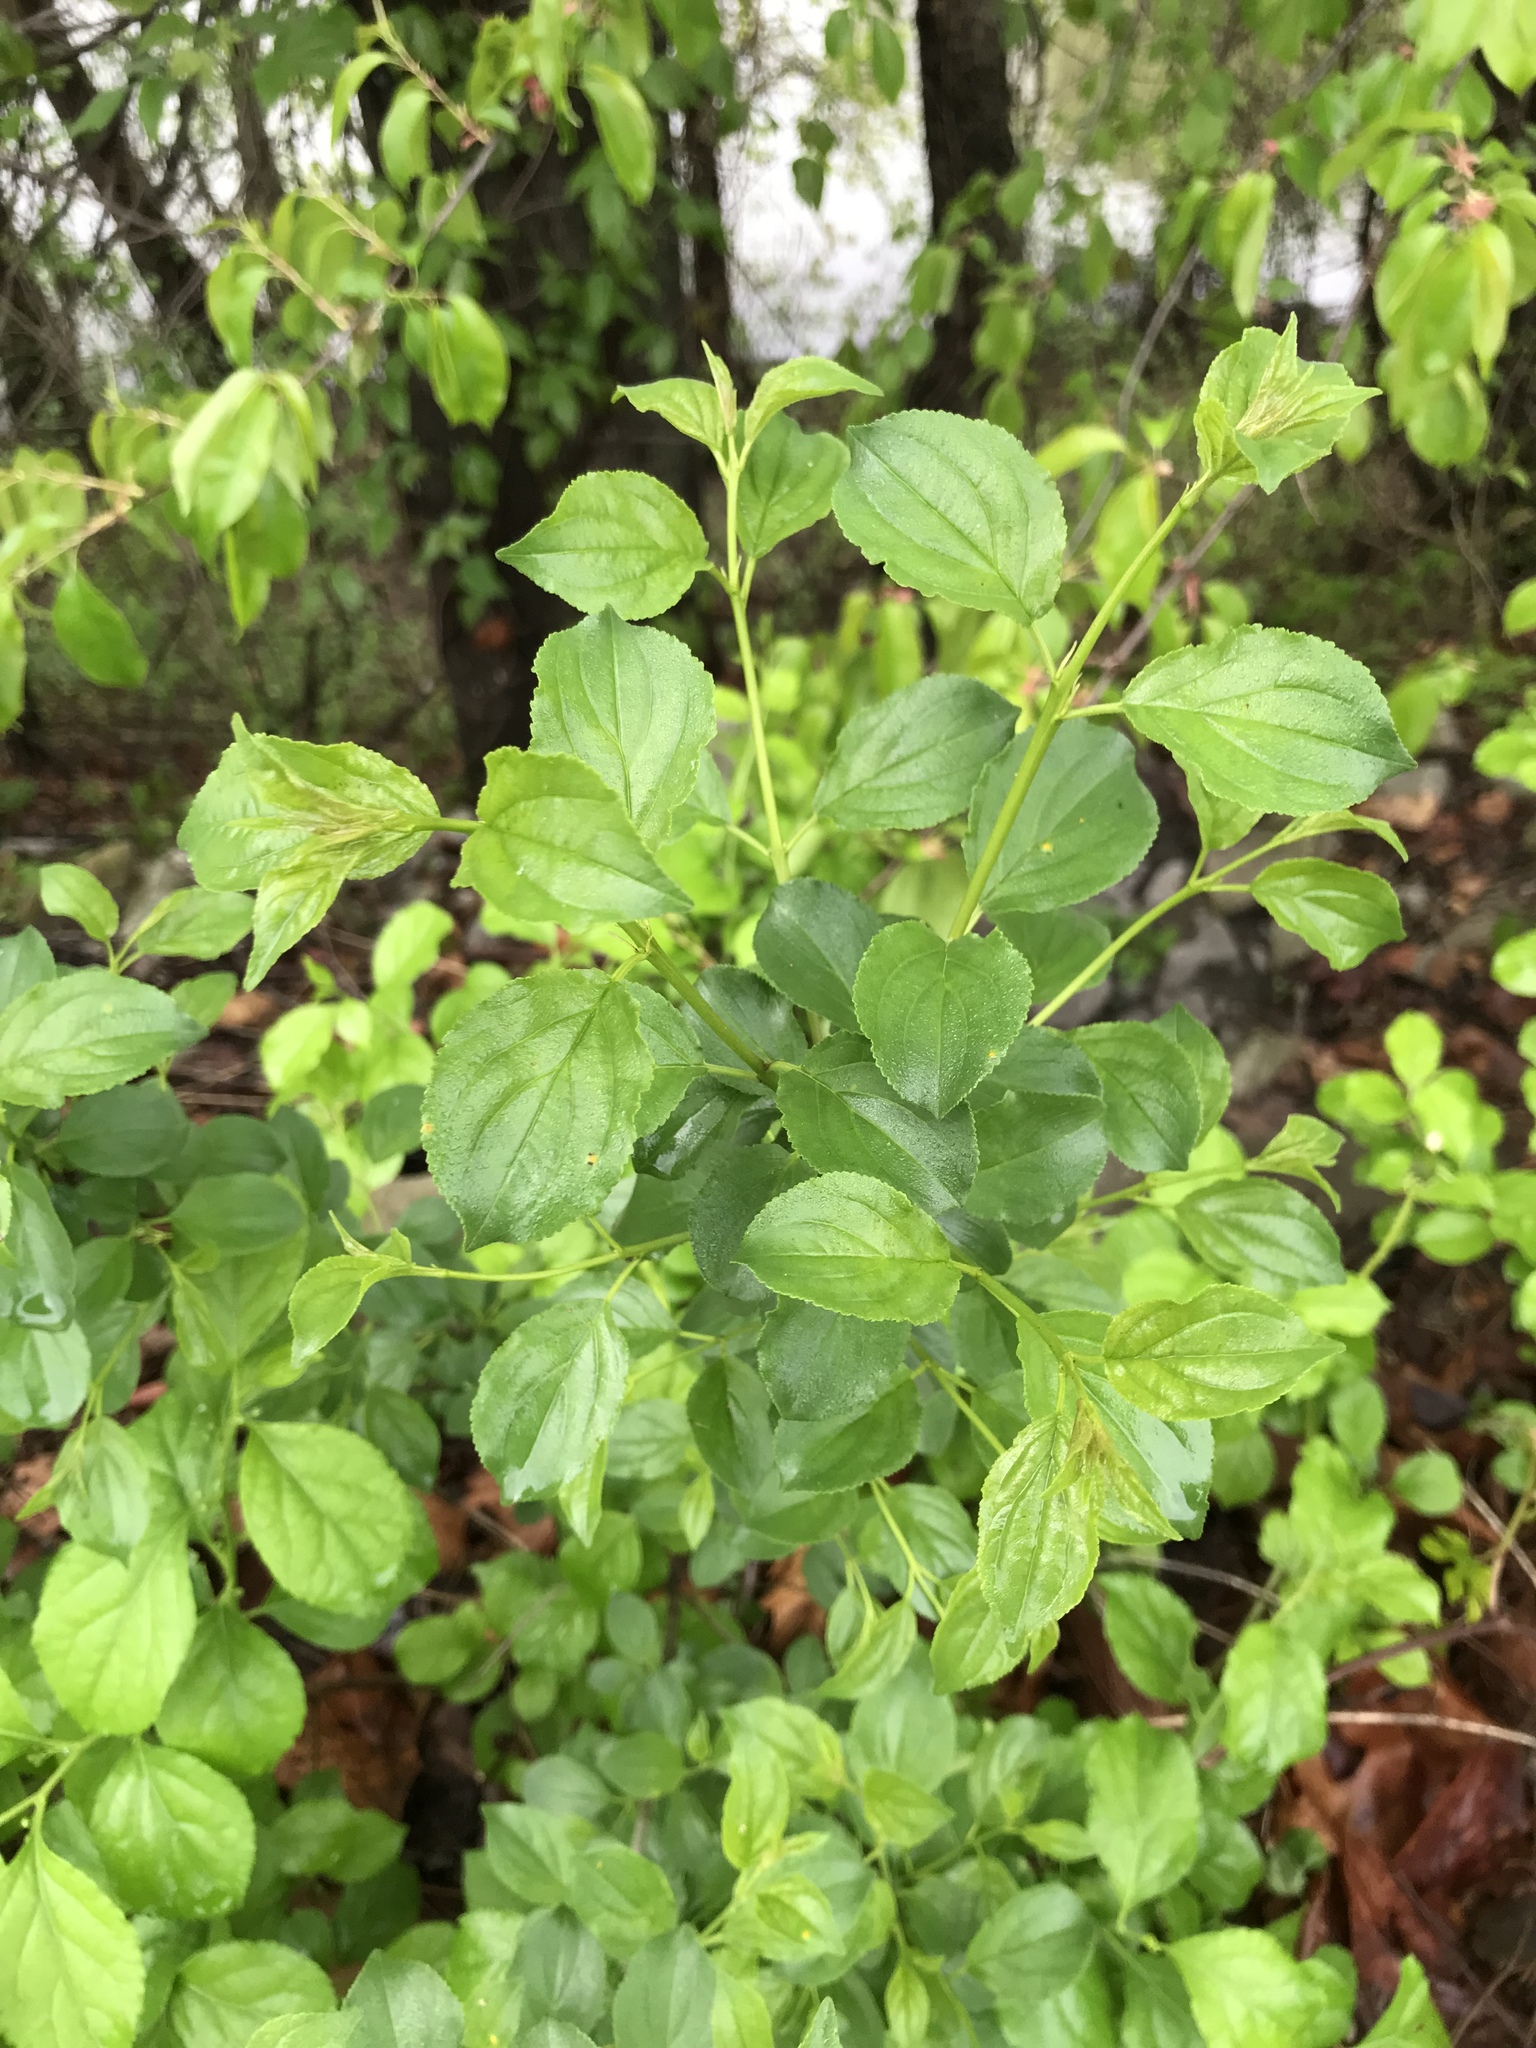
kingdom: Plantae
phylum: Tracheophyta
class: Magnoliopsida
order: Rosales
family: Rhamnaceae
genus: Rhamnus
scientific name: Rhamnus cathartica
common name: Common buckthorn
